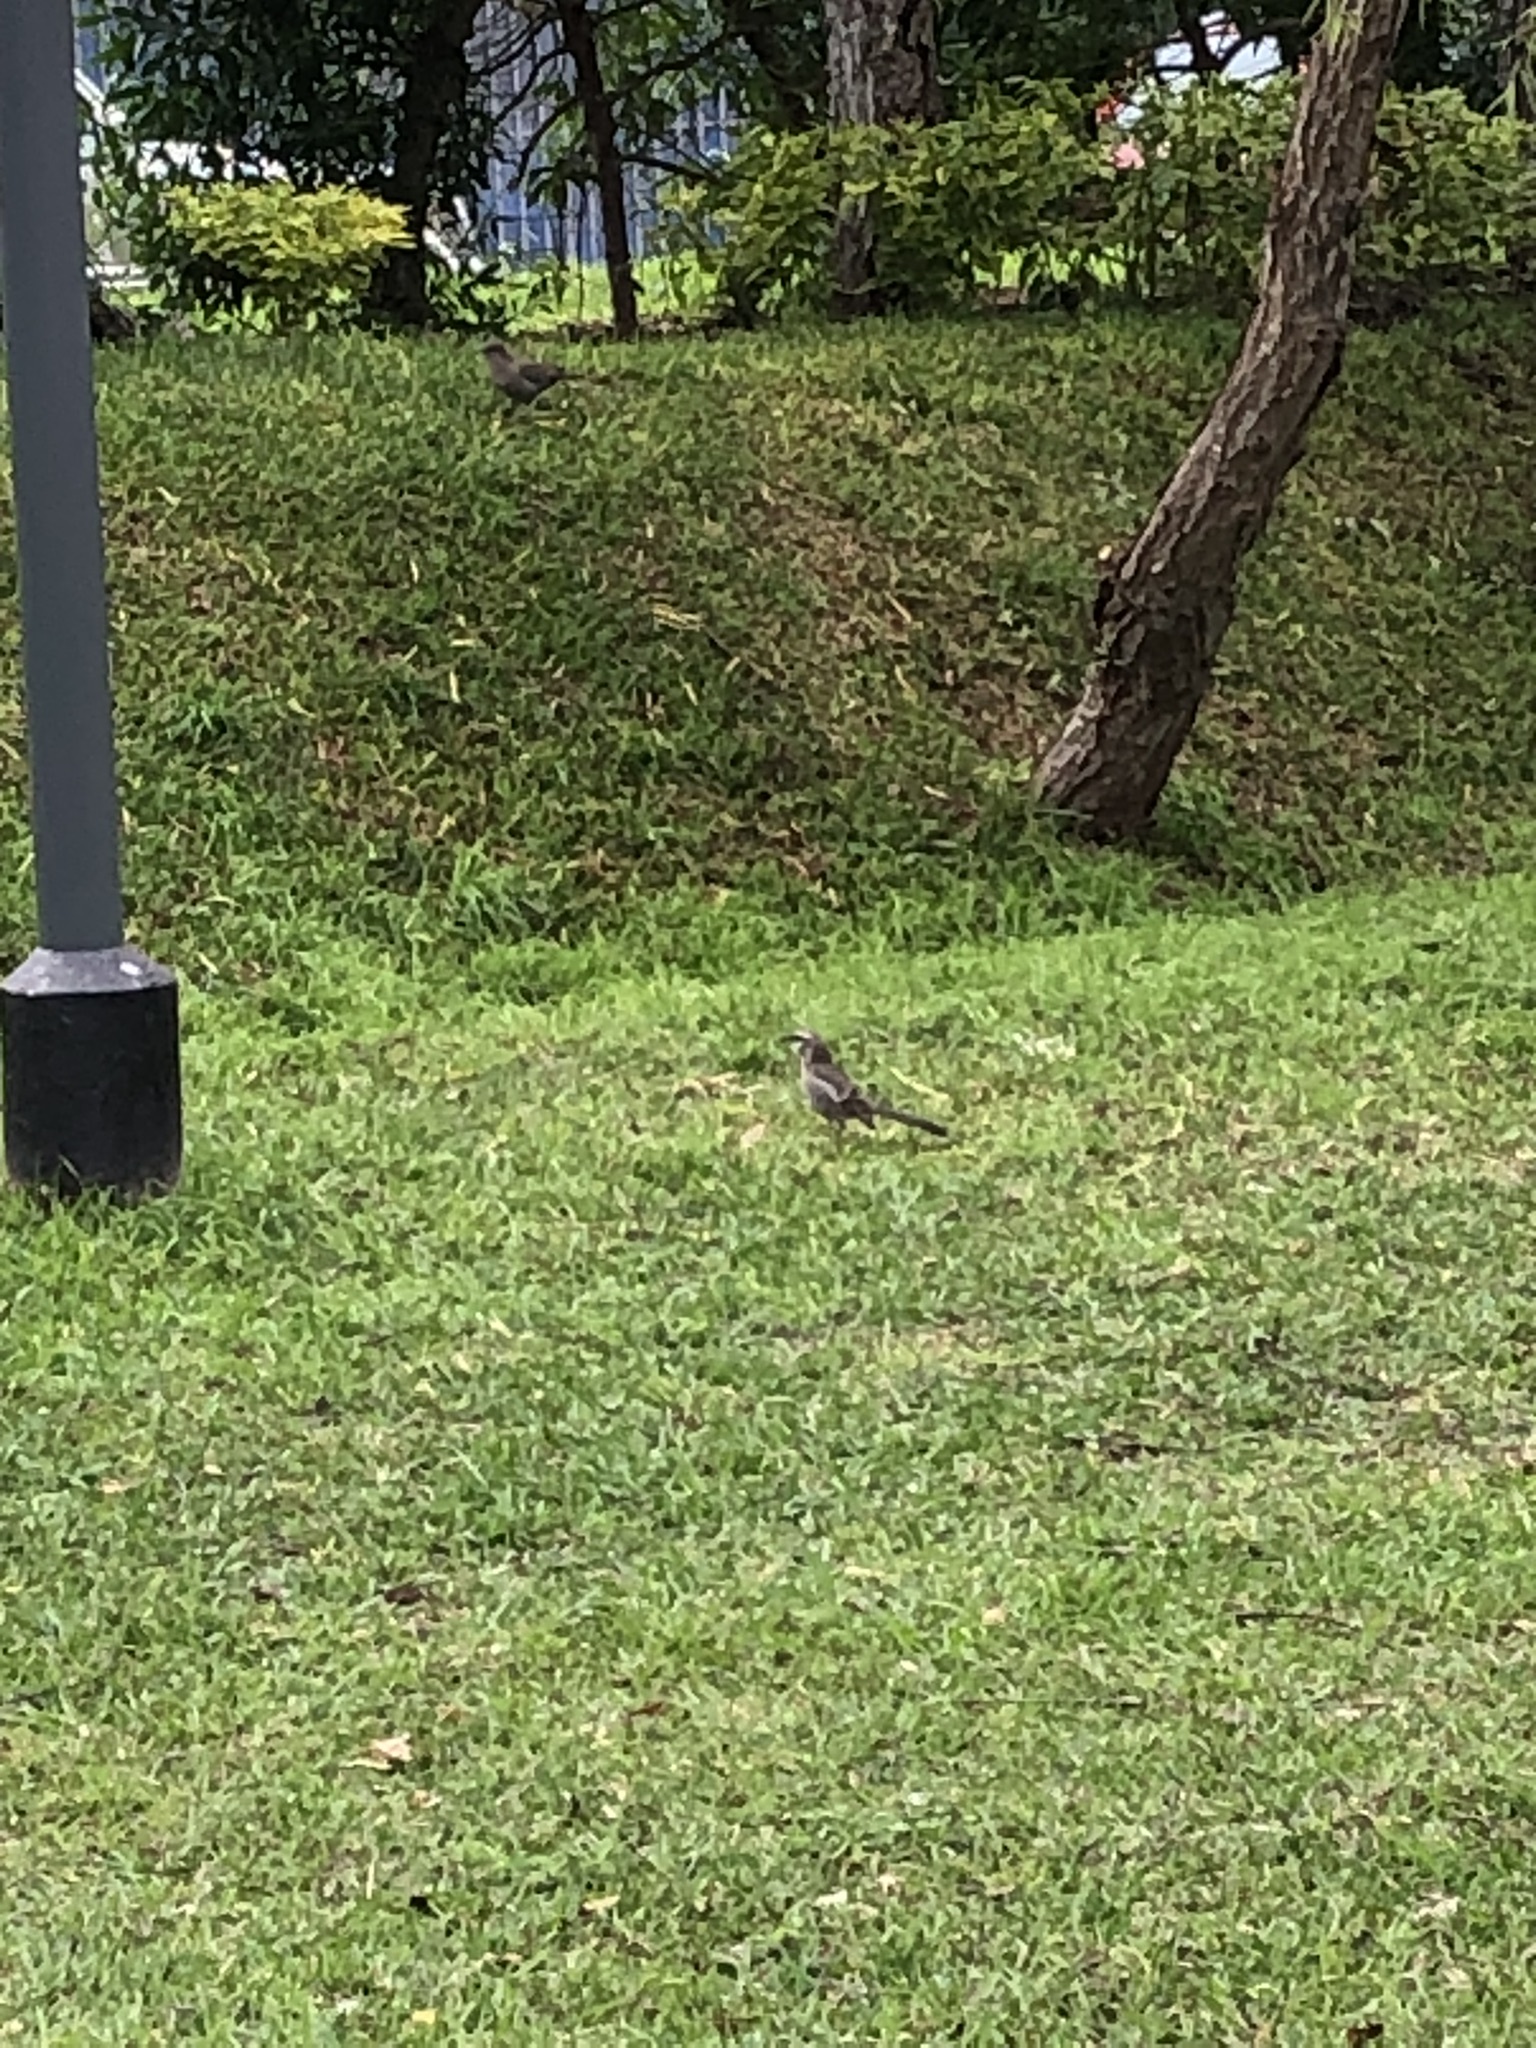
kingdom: Animalia
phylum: Chordata
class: Aves
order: Passeriformes
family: Mimidae
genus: Mimus
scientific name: Mimus longicaudatus
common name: Long-tailed mockingbird
